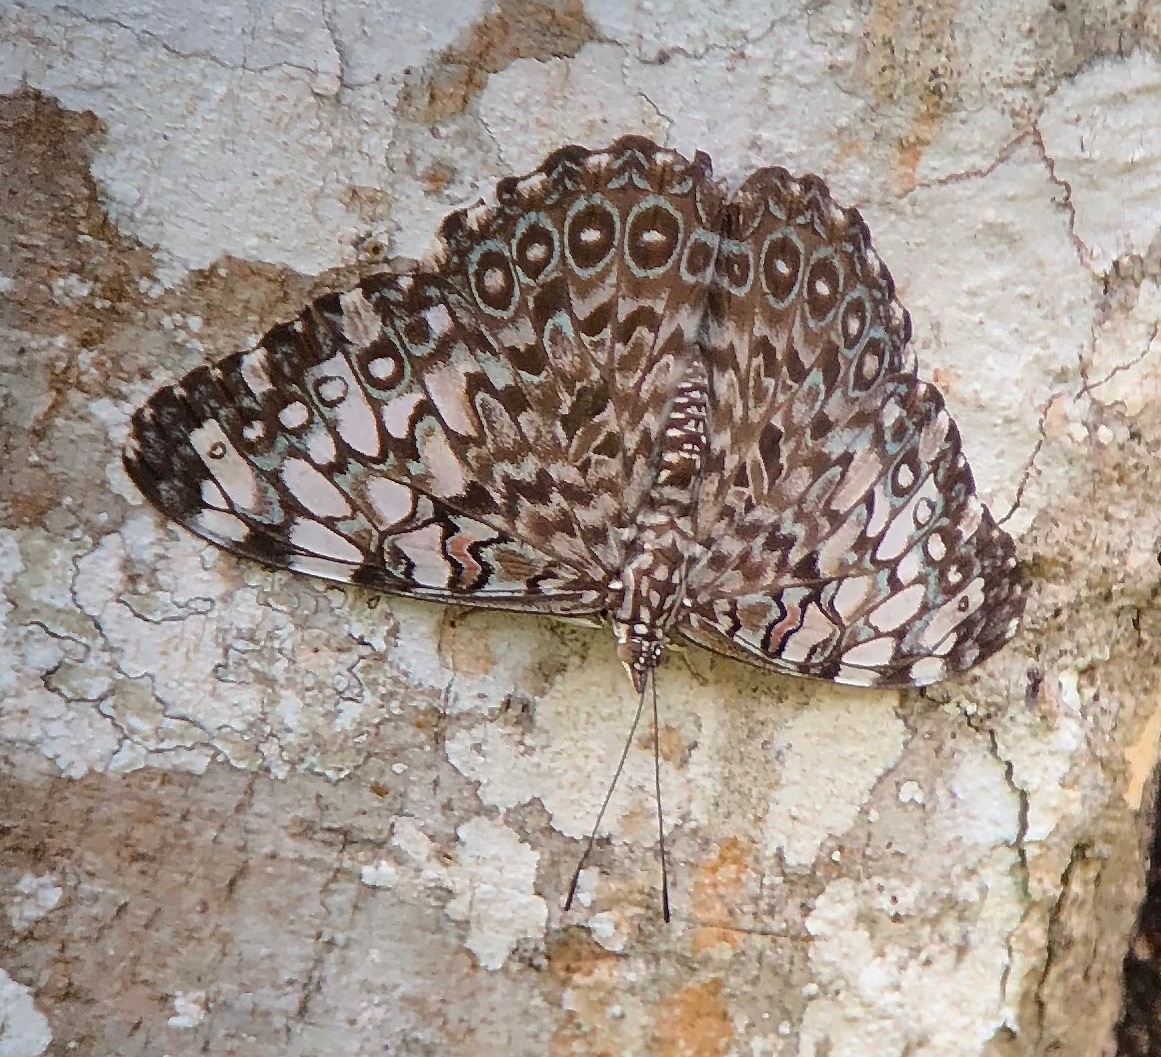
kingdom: Animalia
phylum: Arthropoda
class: Insecta
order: Lepidoptera
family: Nymphalidae
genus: Hamadryas
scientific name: Hamadryas feronia
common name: Variable cracker
